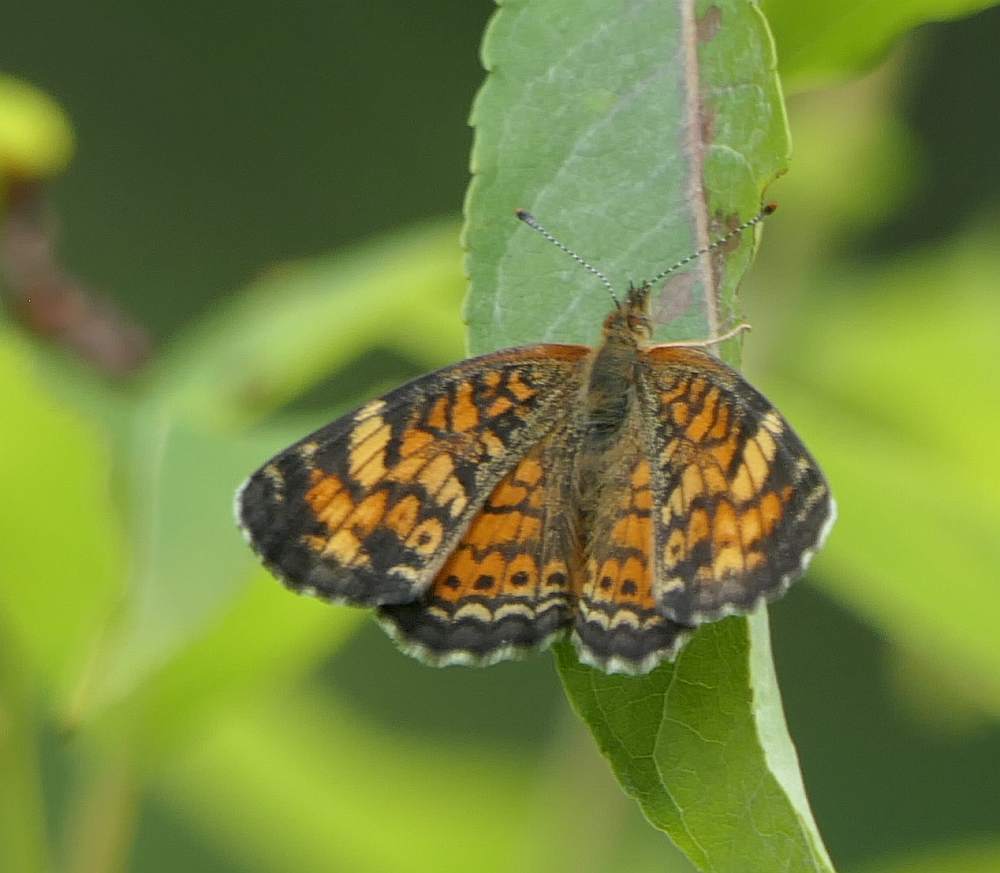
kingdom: Animalia
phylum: Arthropoda
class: Insecta
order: Lepidoptera
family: Nymphalidae
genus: Phyciodes
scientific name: Phyciodes tharos
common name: Pearl crescent
